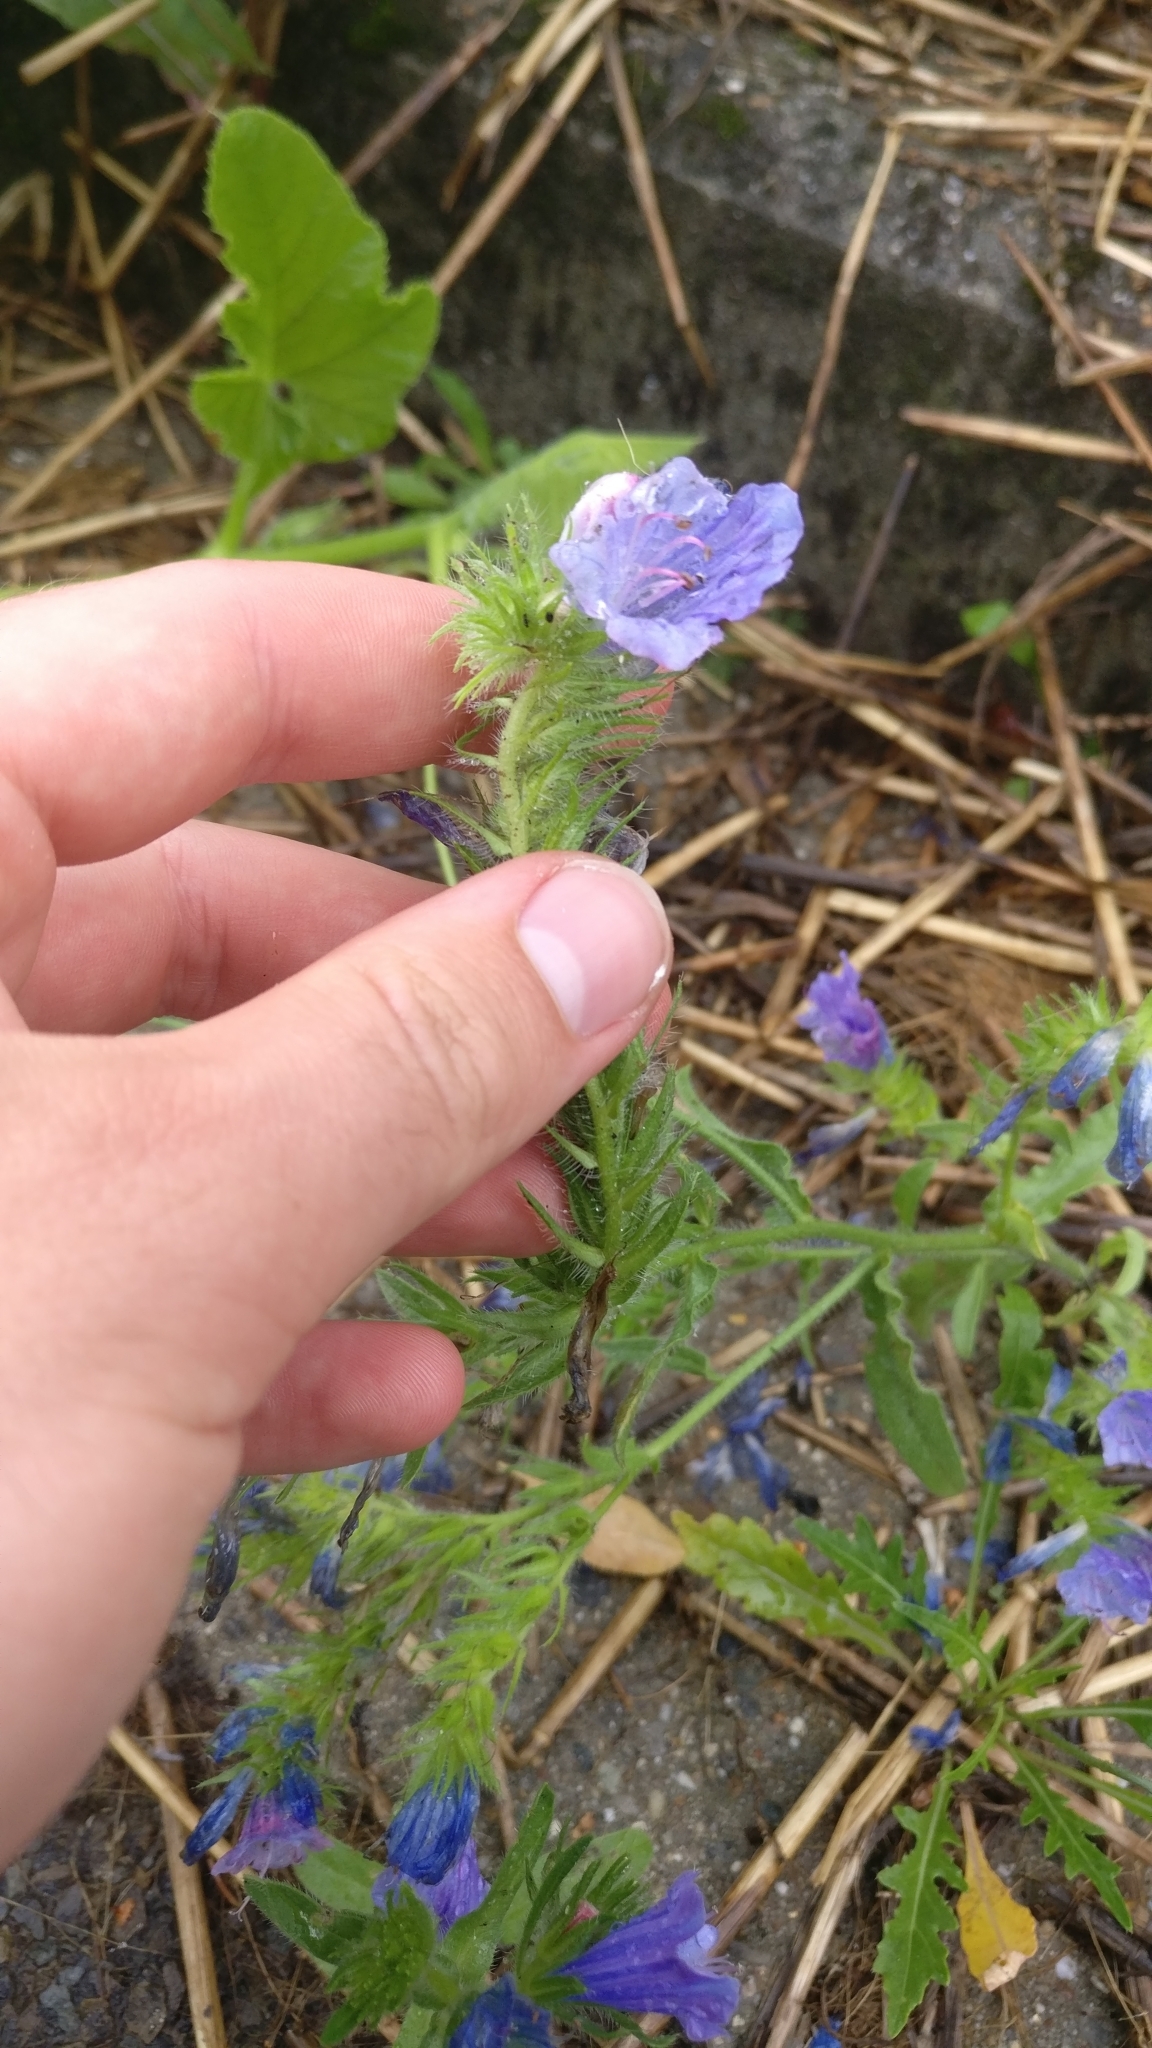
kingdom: Plantae
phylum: Tracheophyta
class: Magnoliopsida
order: Boraginales
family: Boraginaceae
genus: Echium
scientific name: Echium vulgare
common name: Common viper's bugloss
